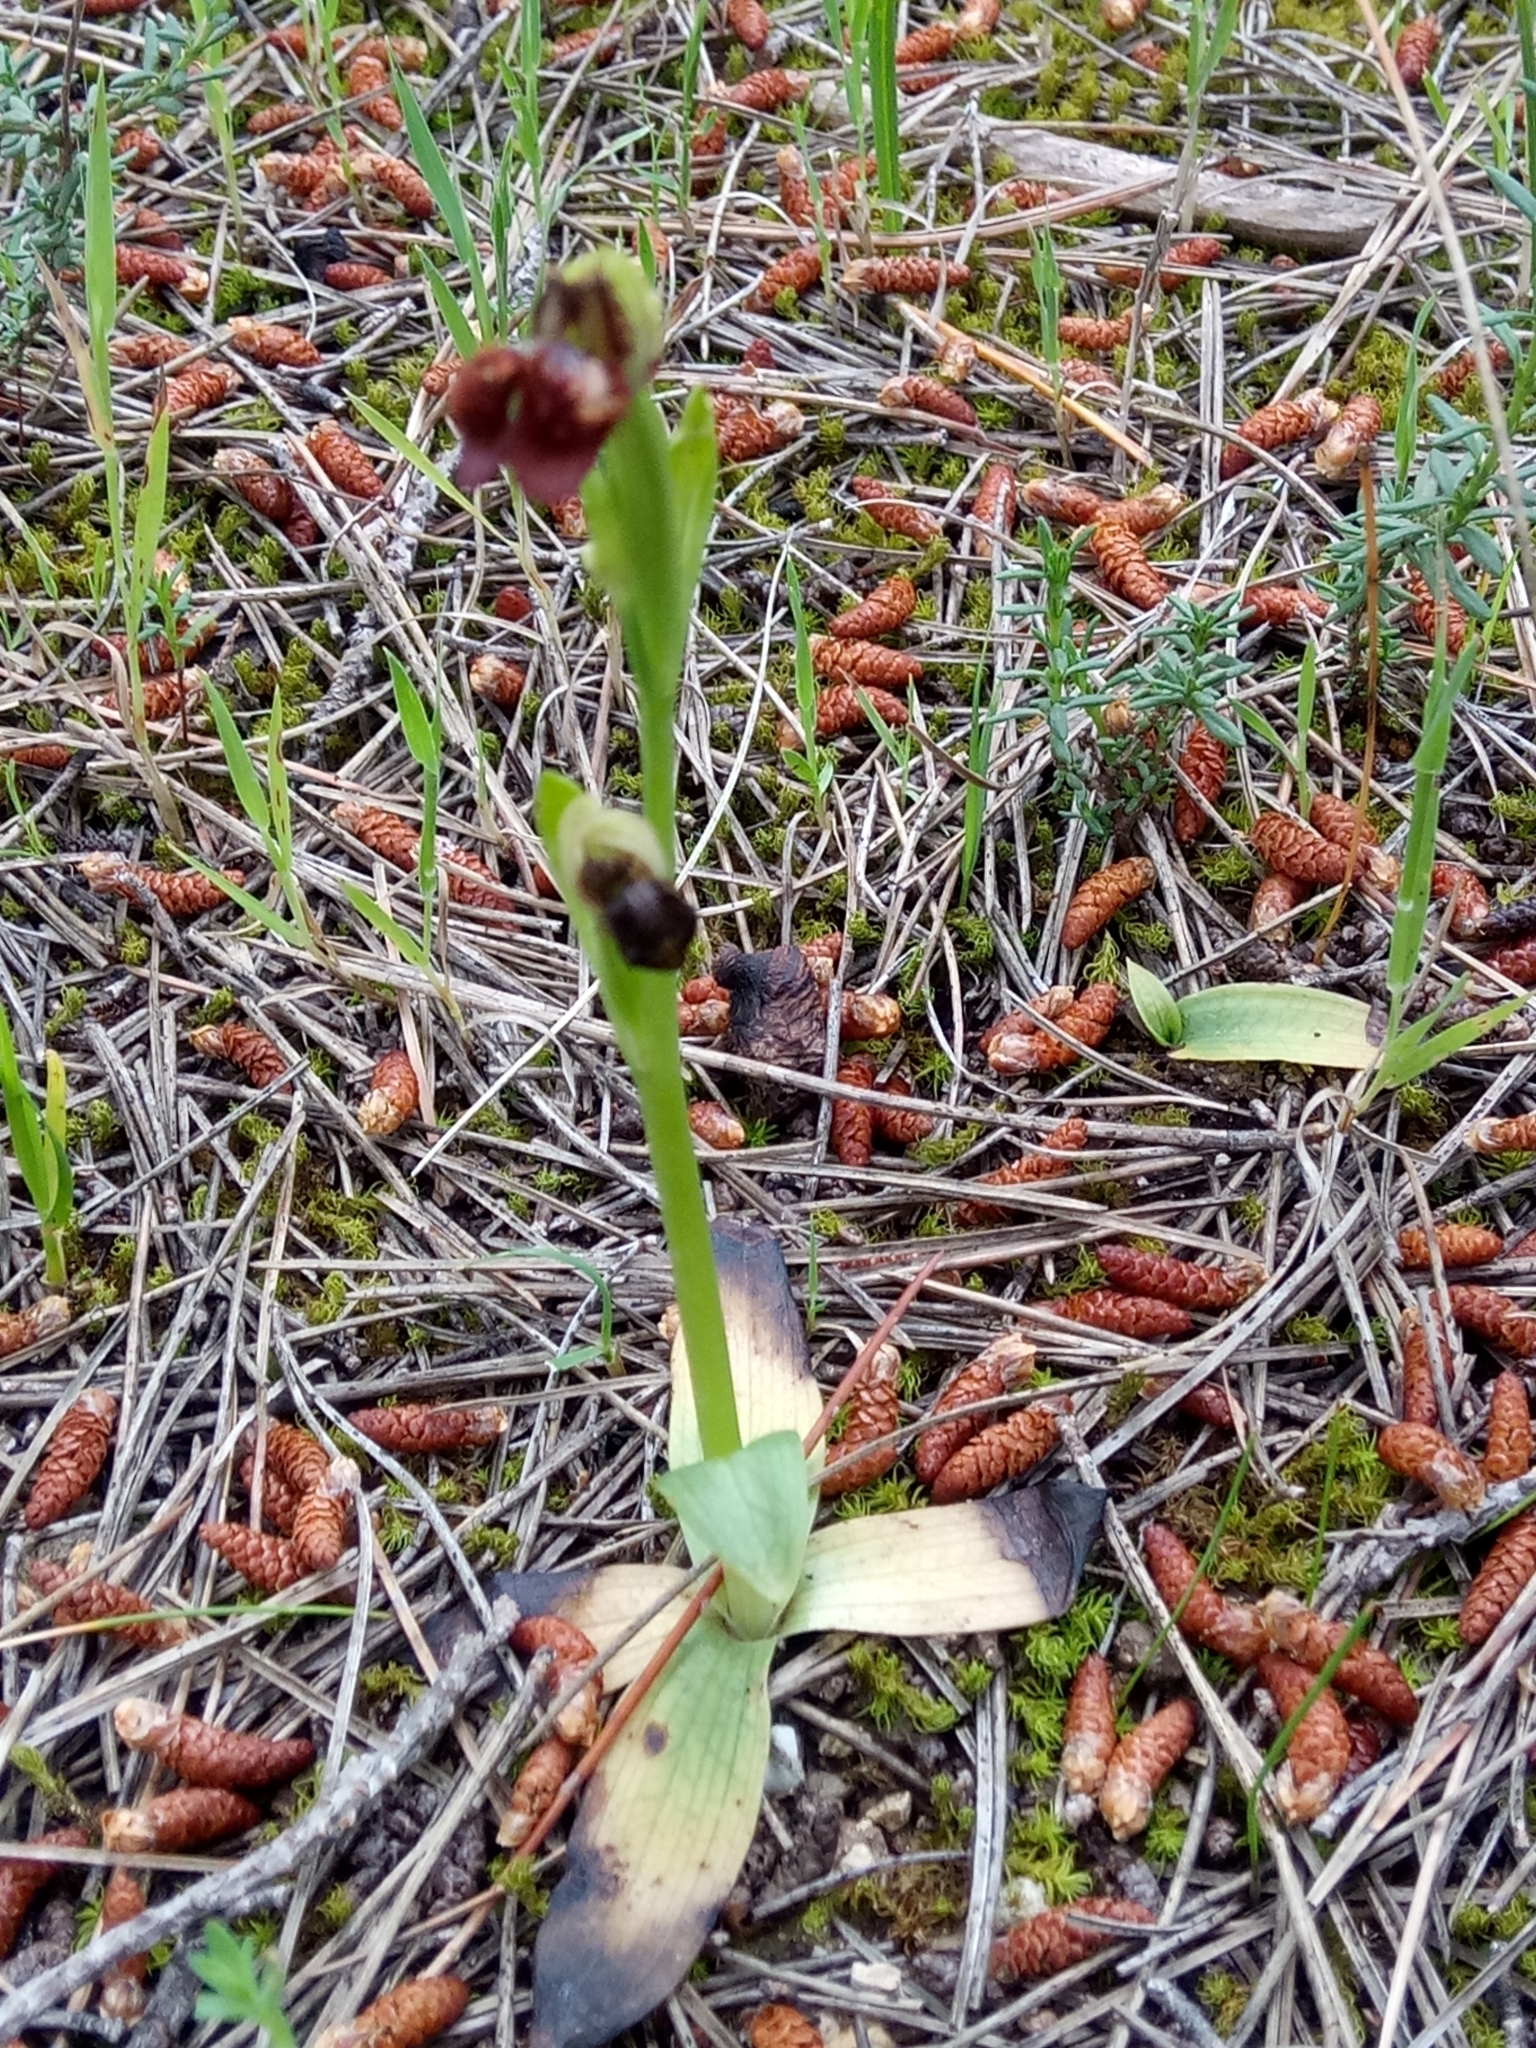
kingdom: Plantae
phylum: Tracheophyta
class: Liliopsida
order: Asparagales
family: Orchidaceae
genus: Ophrys
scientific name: Ophrys speculum
